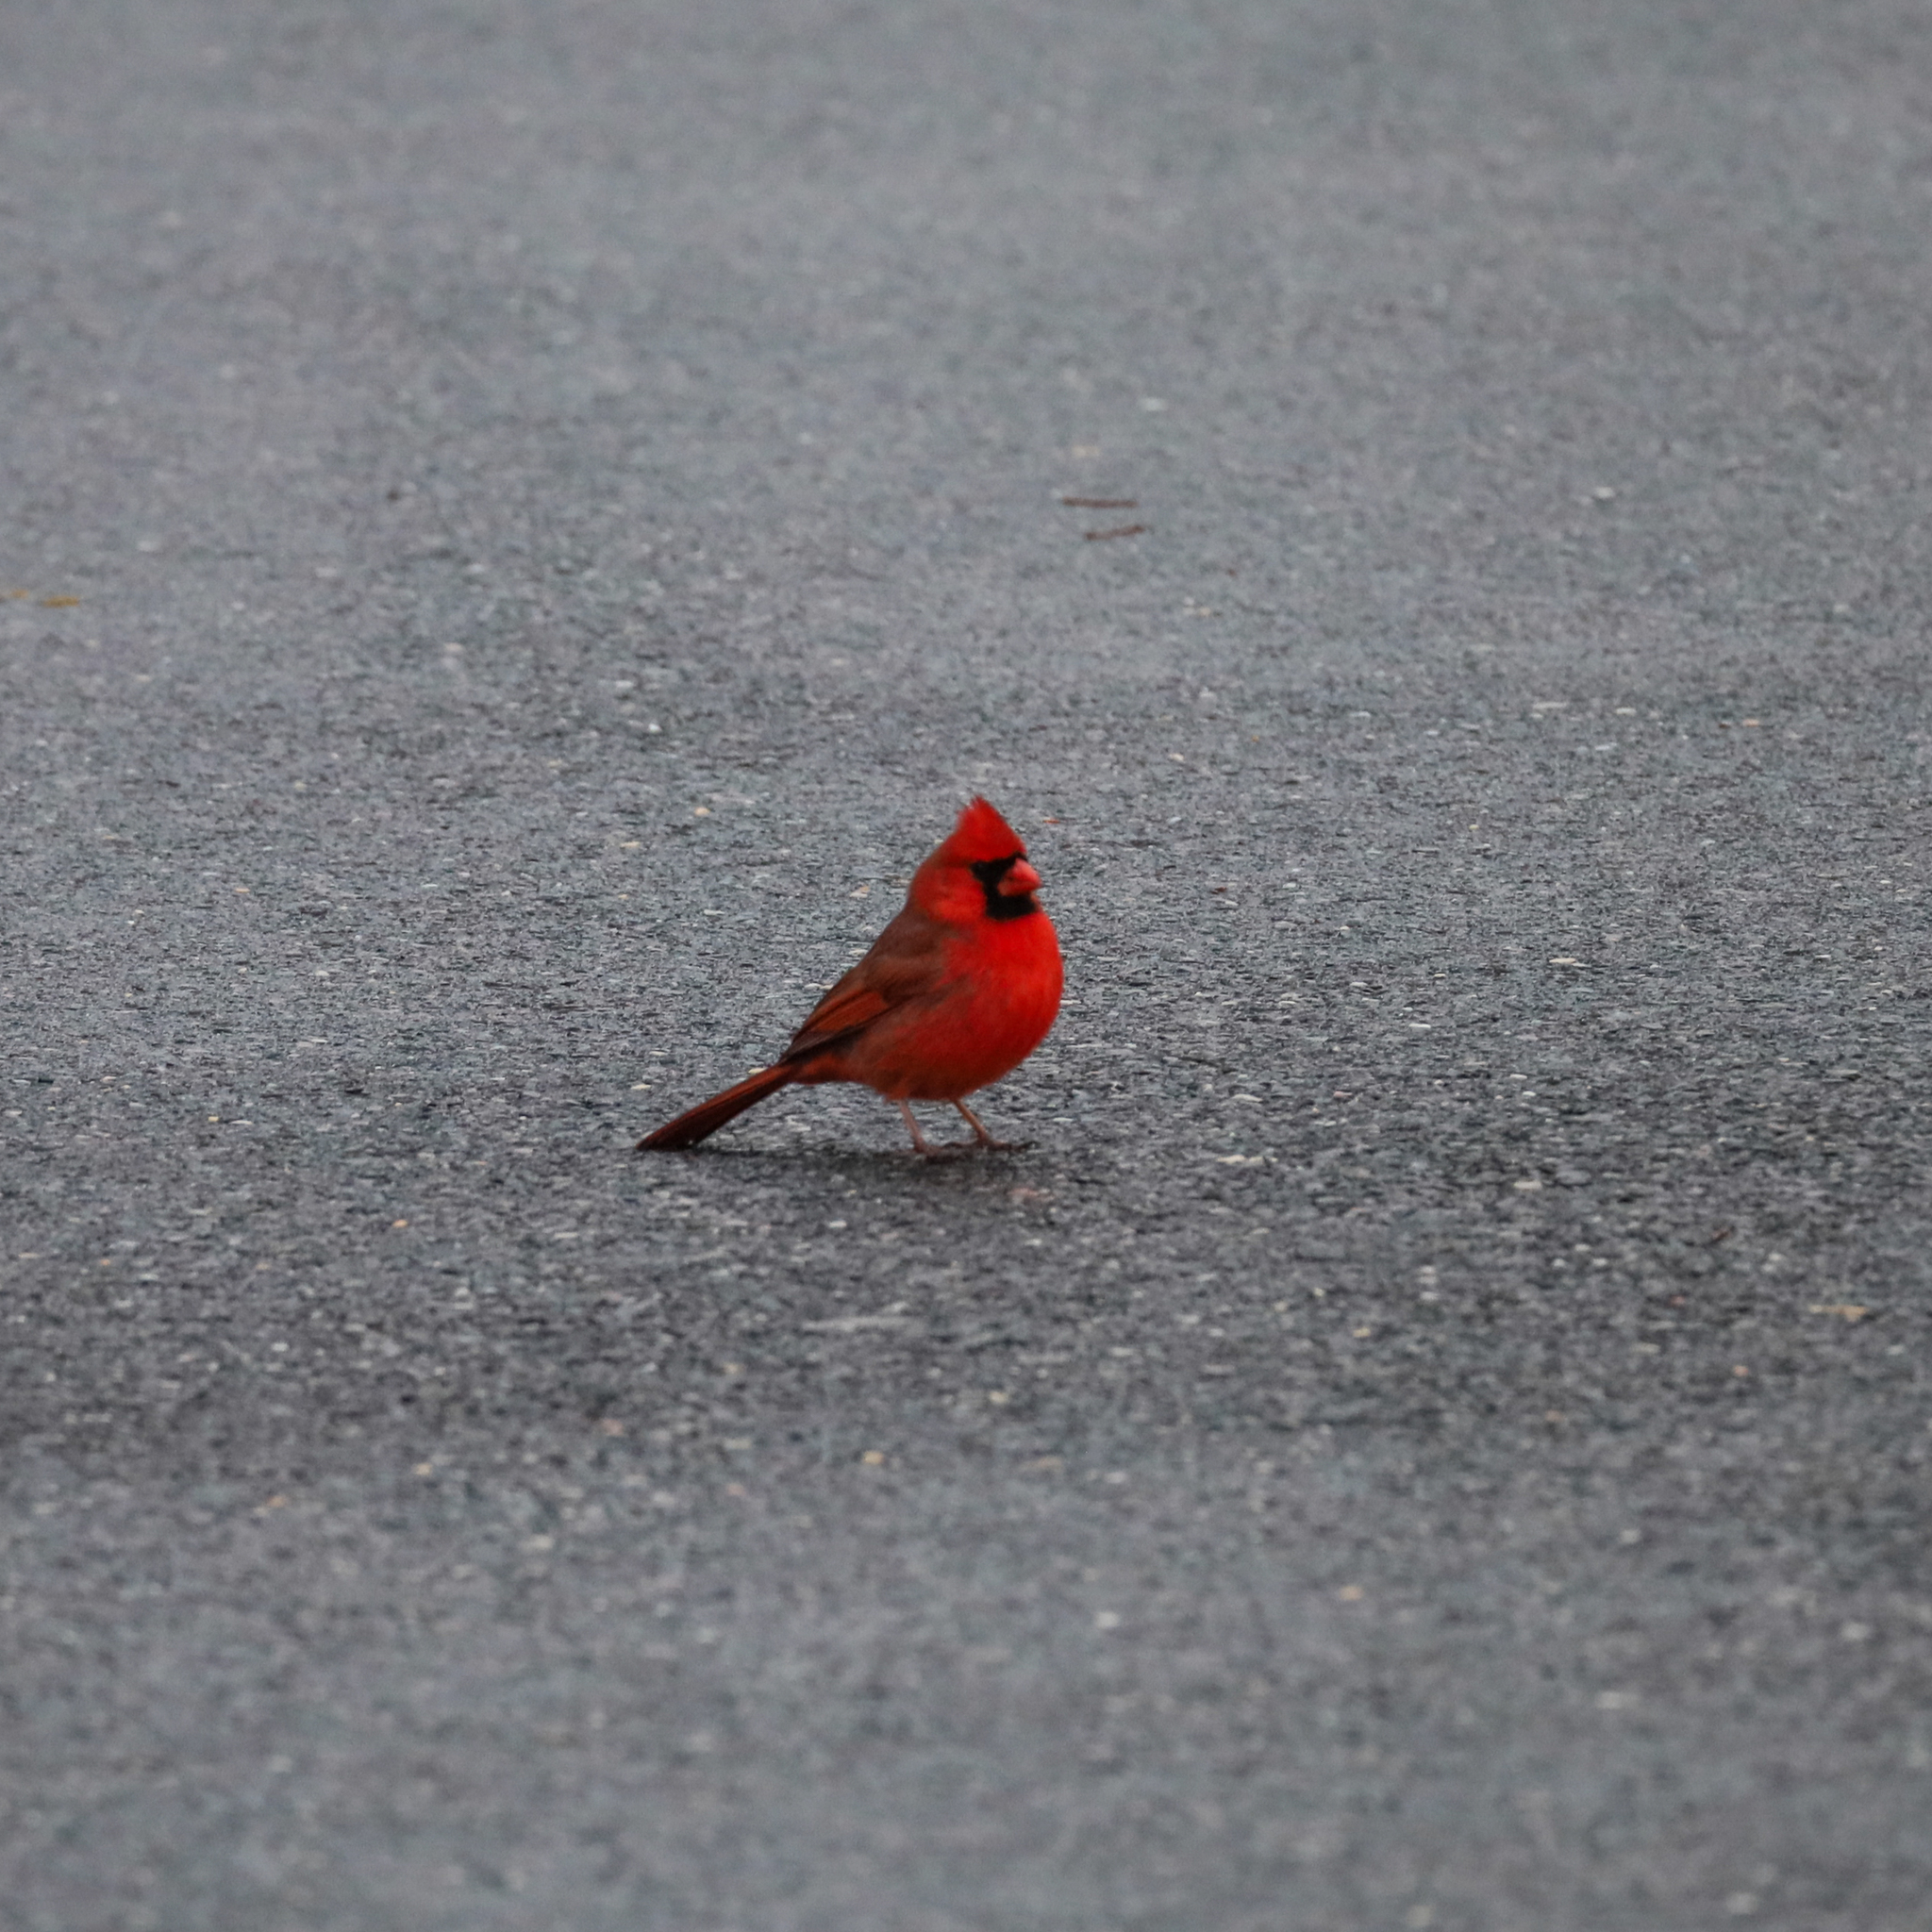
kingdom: Animalia
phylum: Chordata
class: Aves
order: Passeriformes
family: Cardinalidae
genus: Cardinalis
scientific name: Cardinalis cardinalis
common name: Northern cardinal
